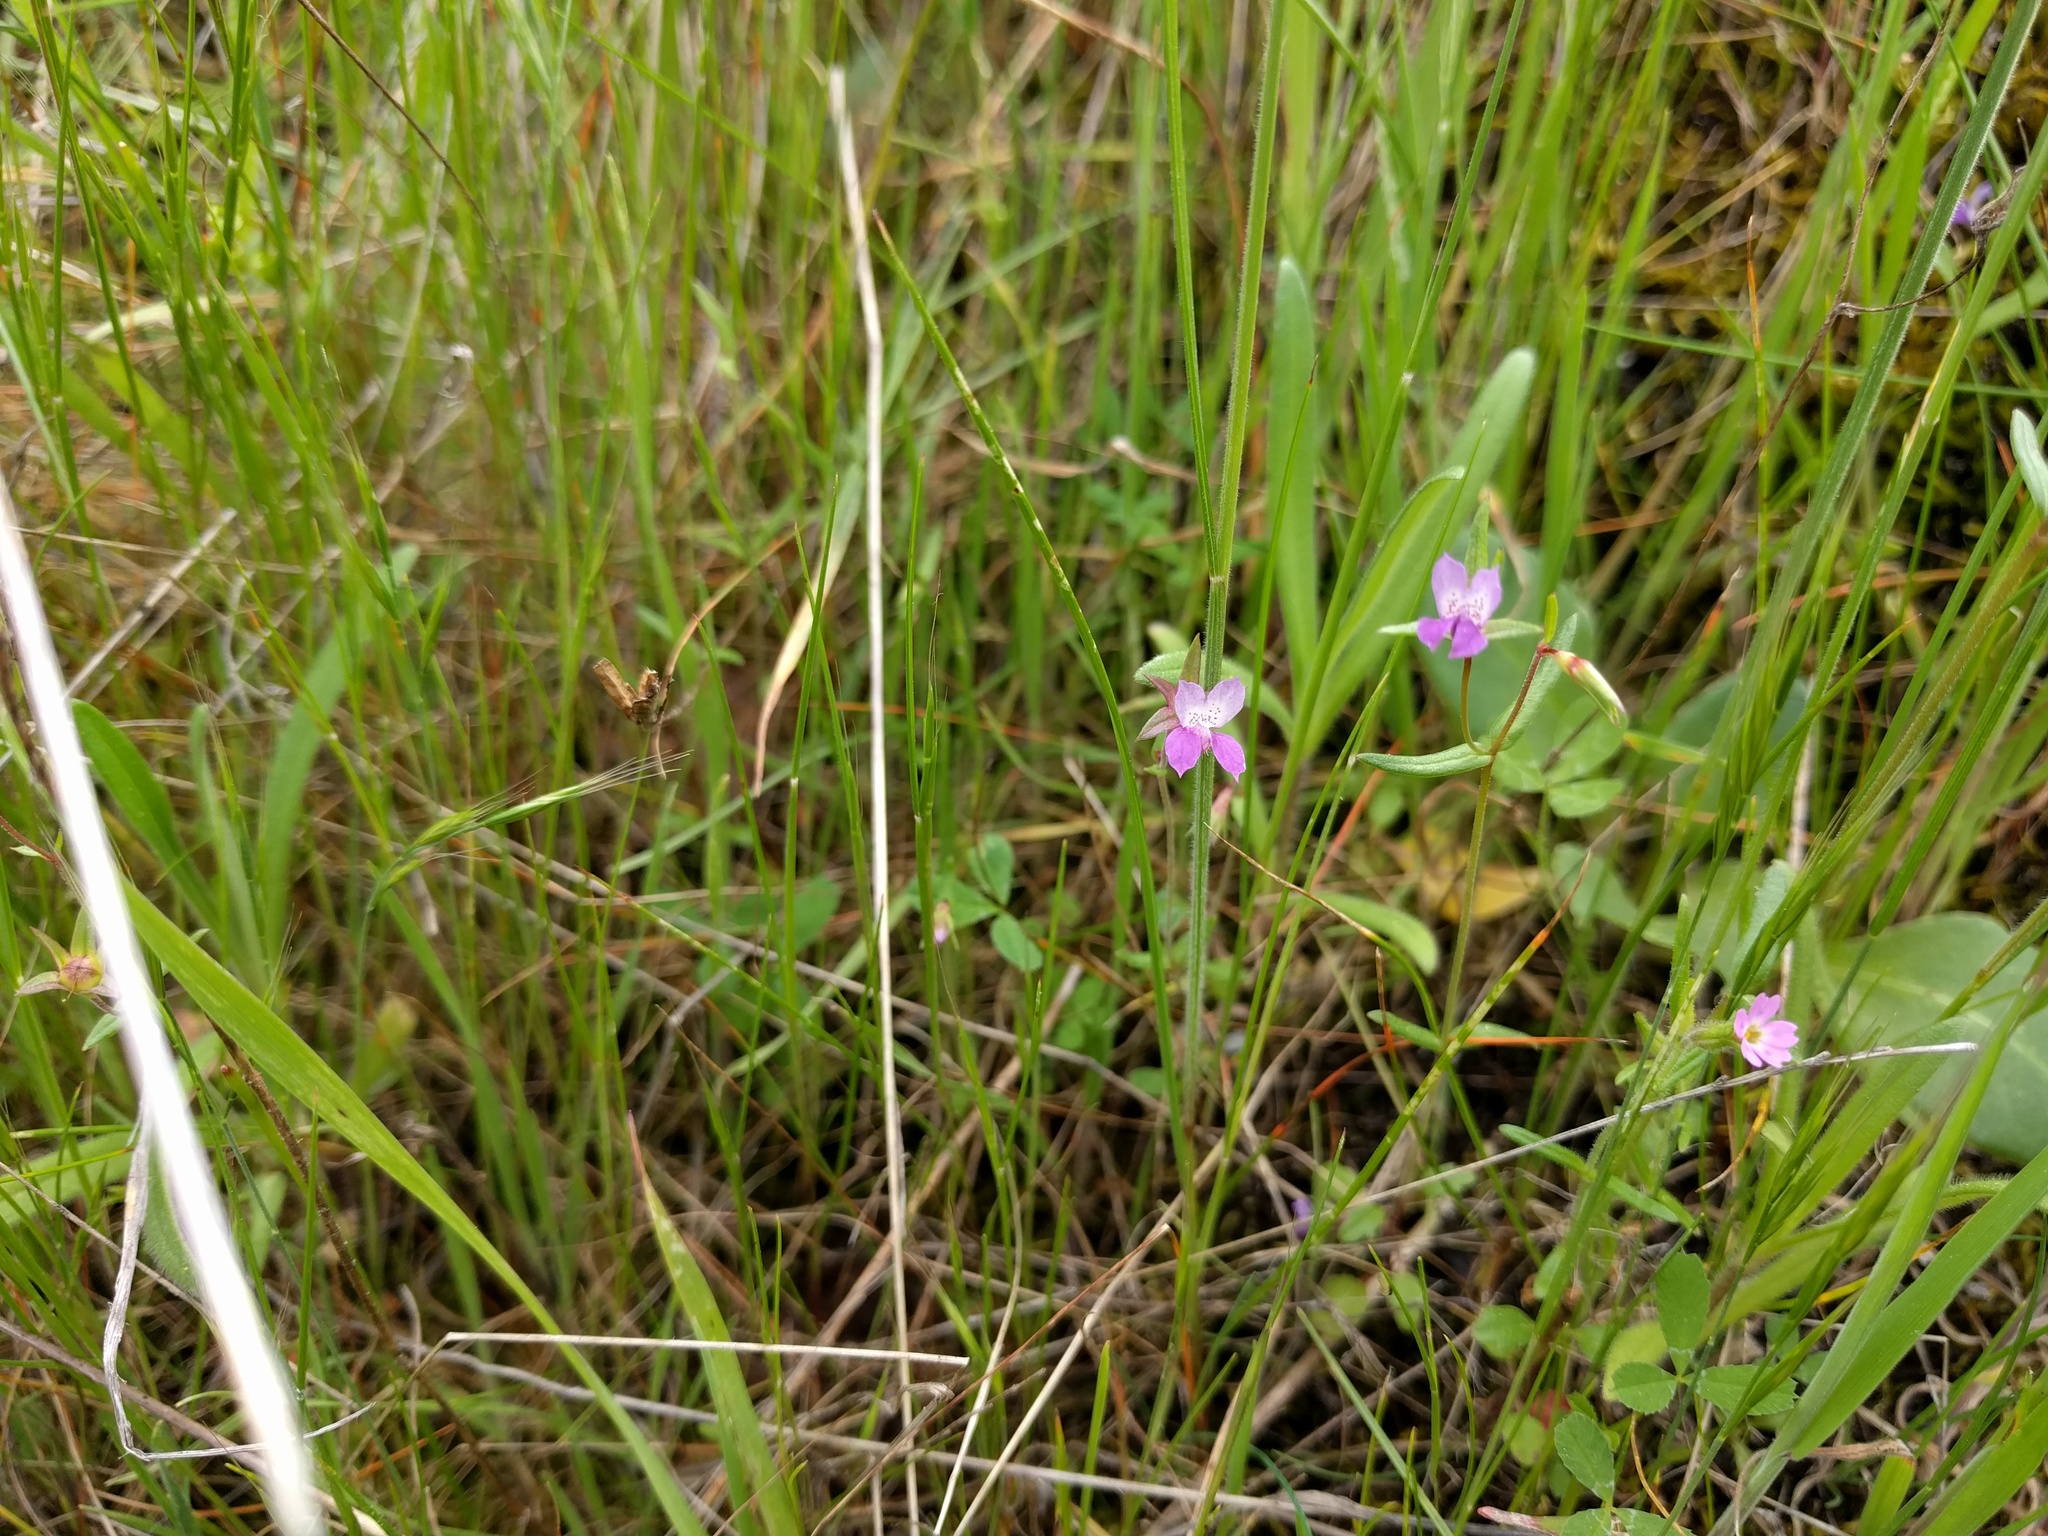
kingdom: Plantae
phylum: Tracheophyta
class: Magnoliopsida
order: Lamiales
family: Plantaginaceae
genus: Collinsia
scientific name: Collinsia sparsiflora
